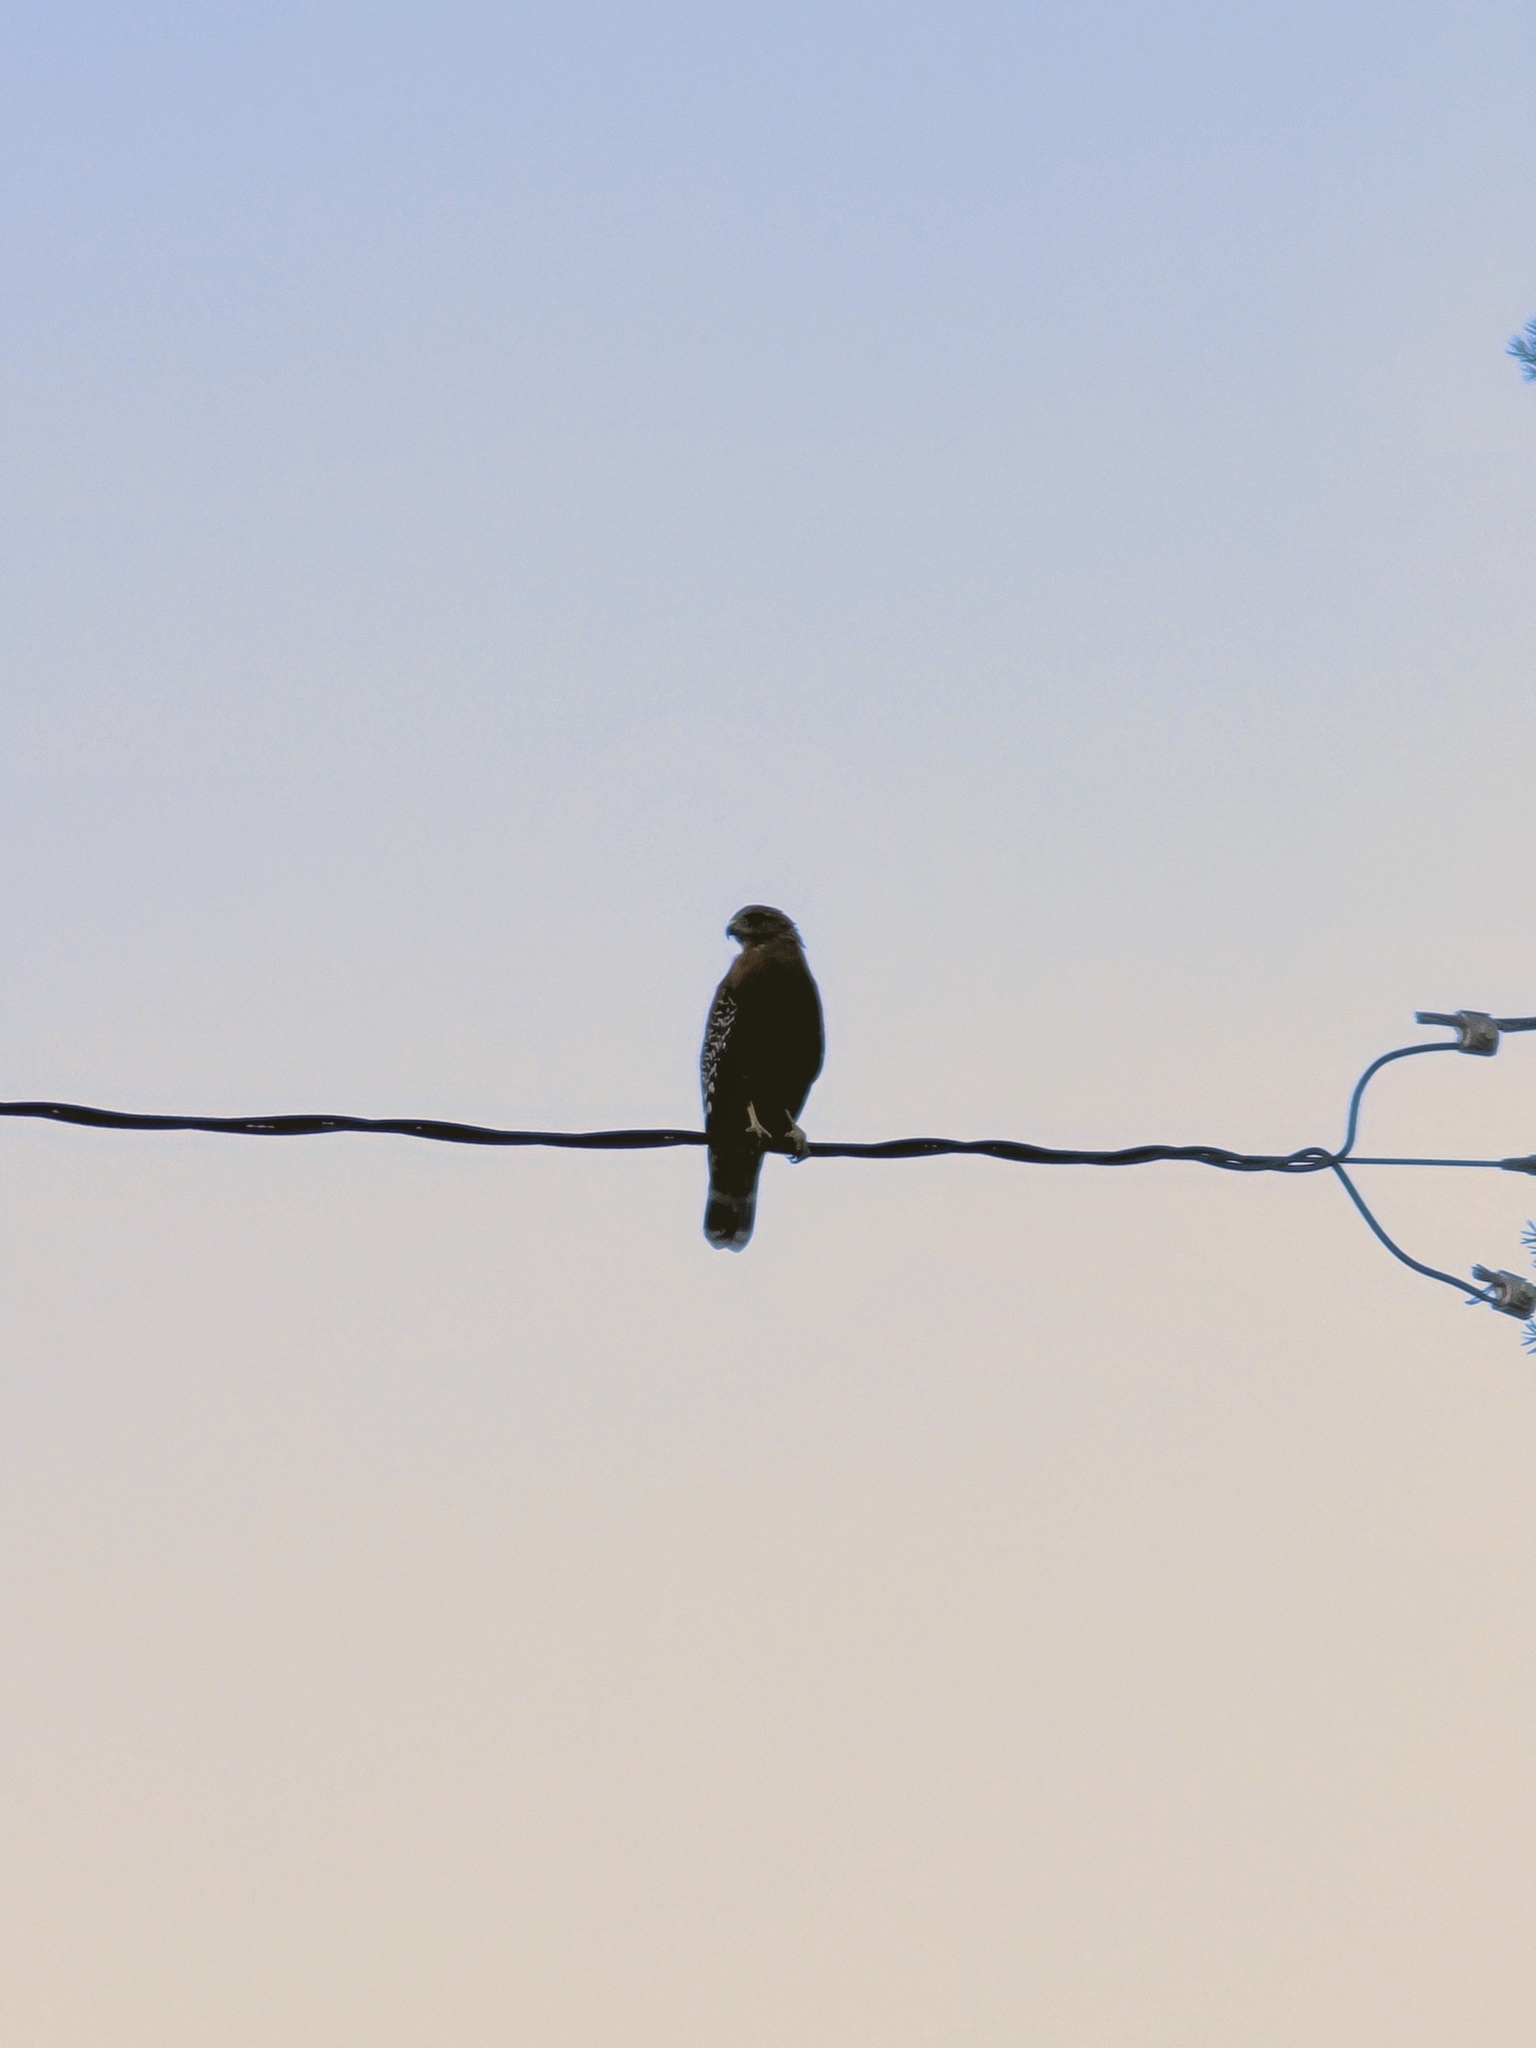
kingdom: Animalia
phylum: Chordata
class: Aves
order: Accipitriformes
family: Accipitridae
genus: Buteo
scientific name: Buteo lineatus
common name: Red-shouldered hawk
